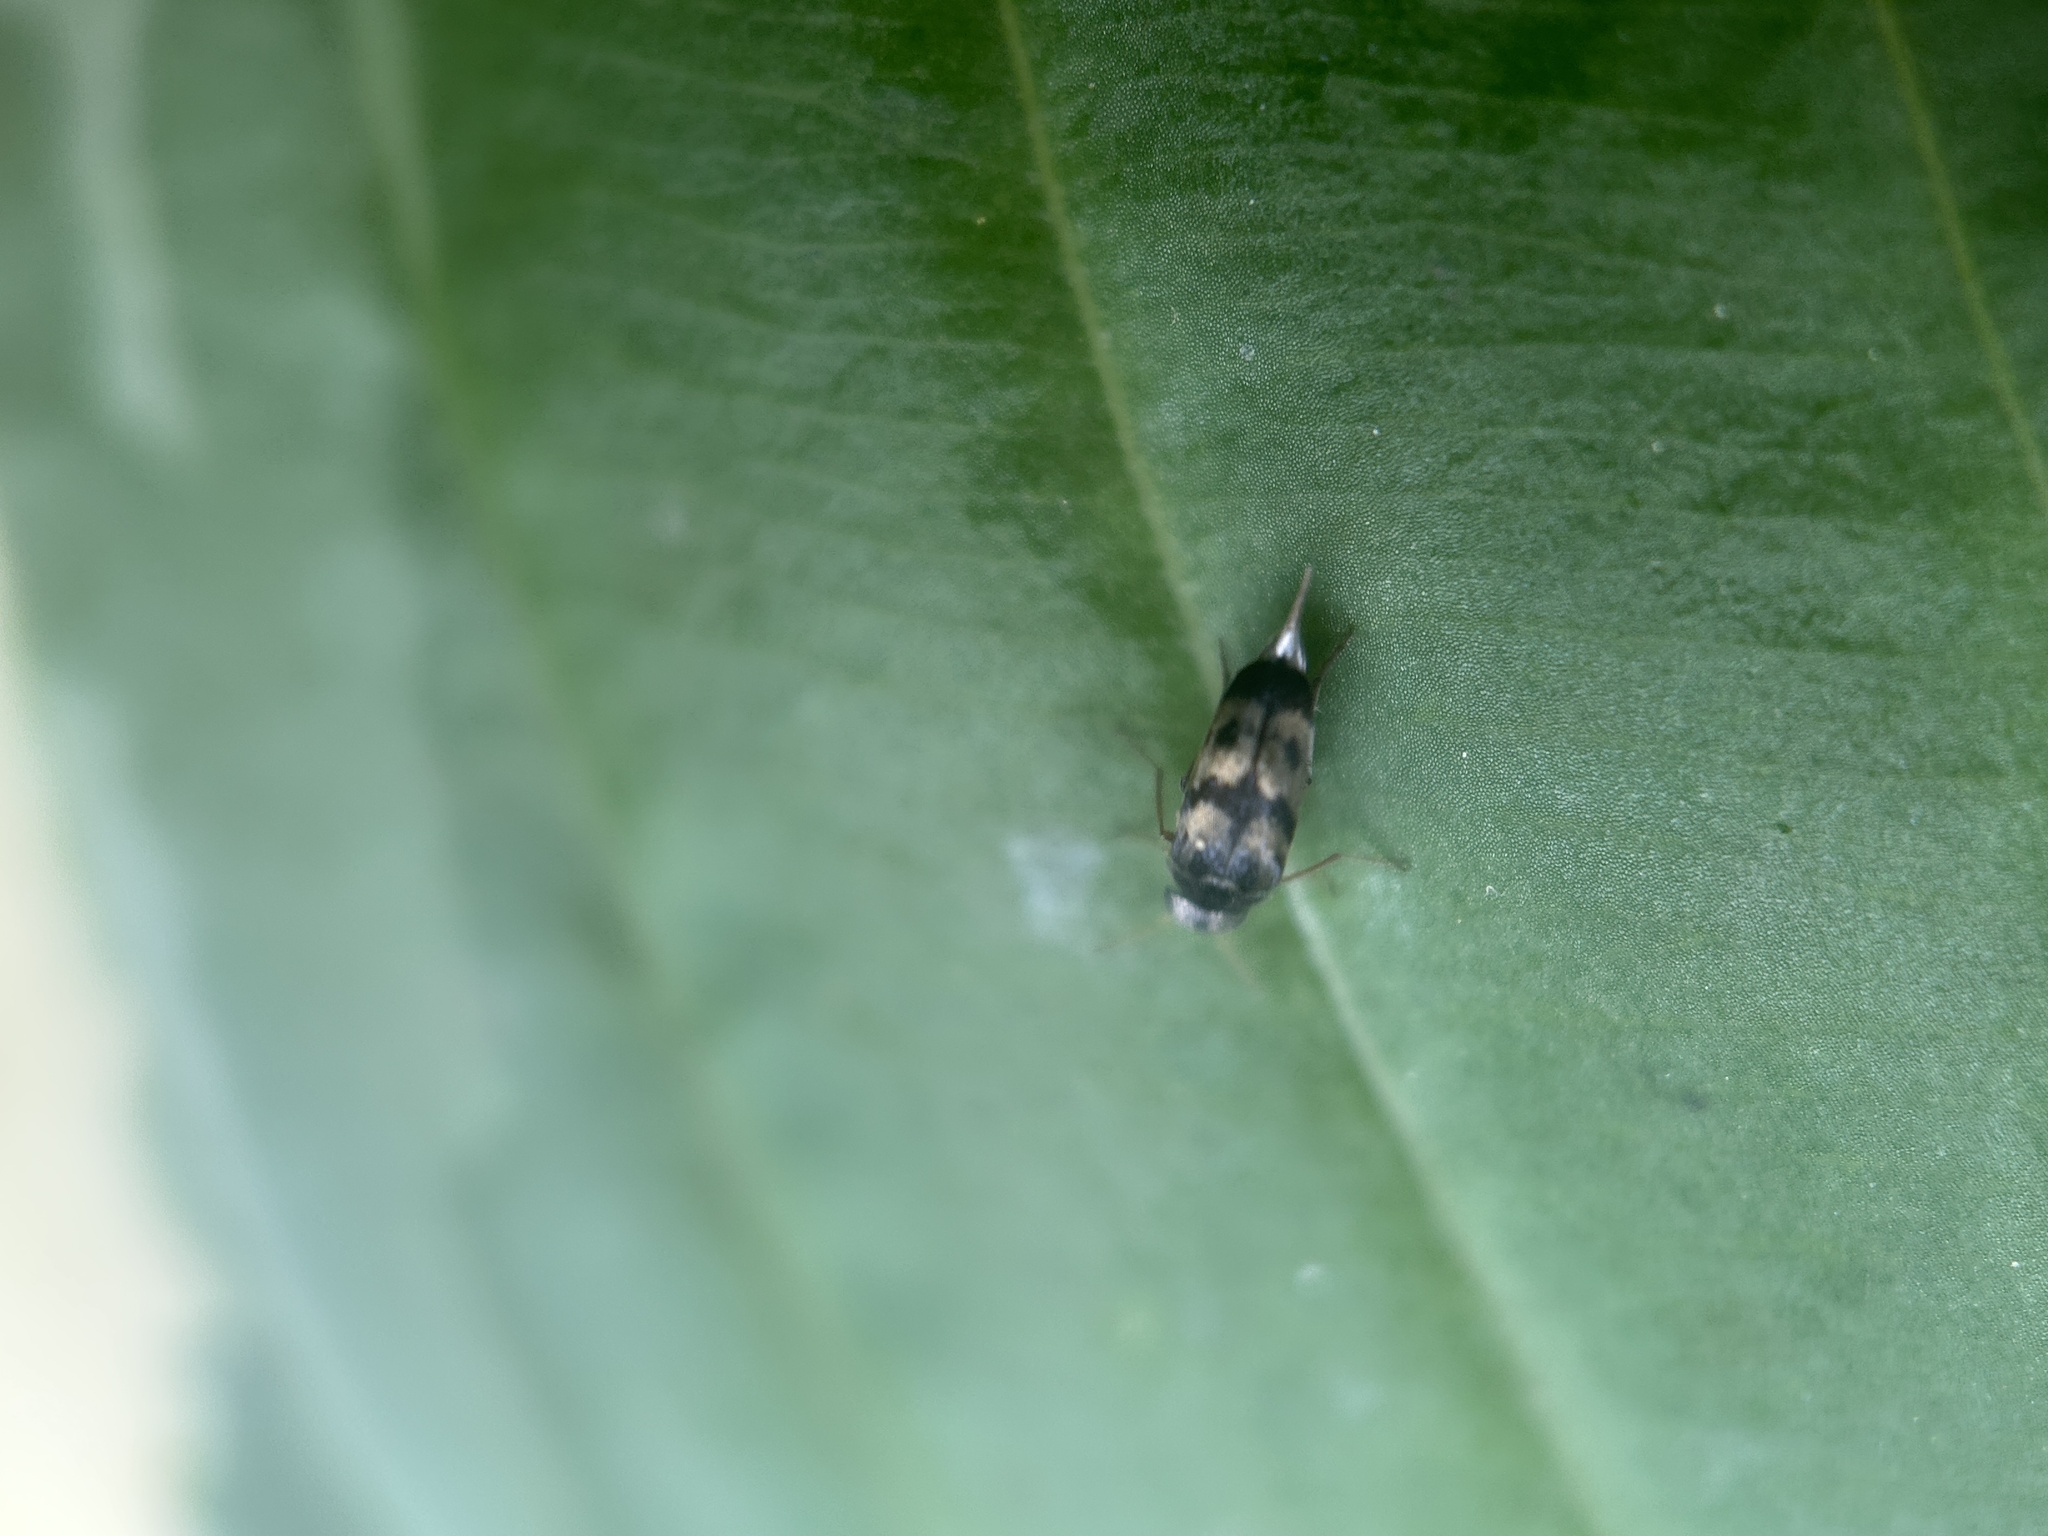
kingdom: Animalia
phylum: Arthropoda
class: Insecta
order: Coleoptera
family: Mordellidae
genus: Paramordellaria
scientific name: Paramordellaria triloba
